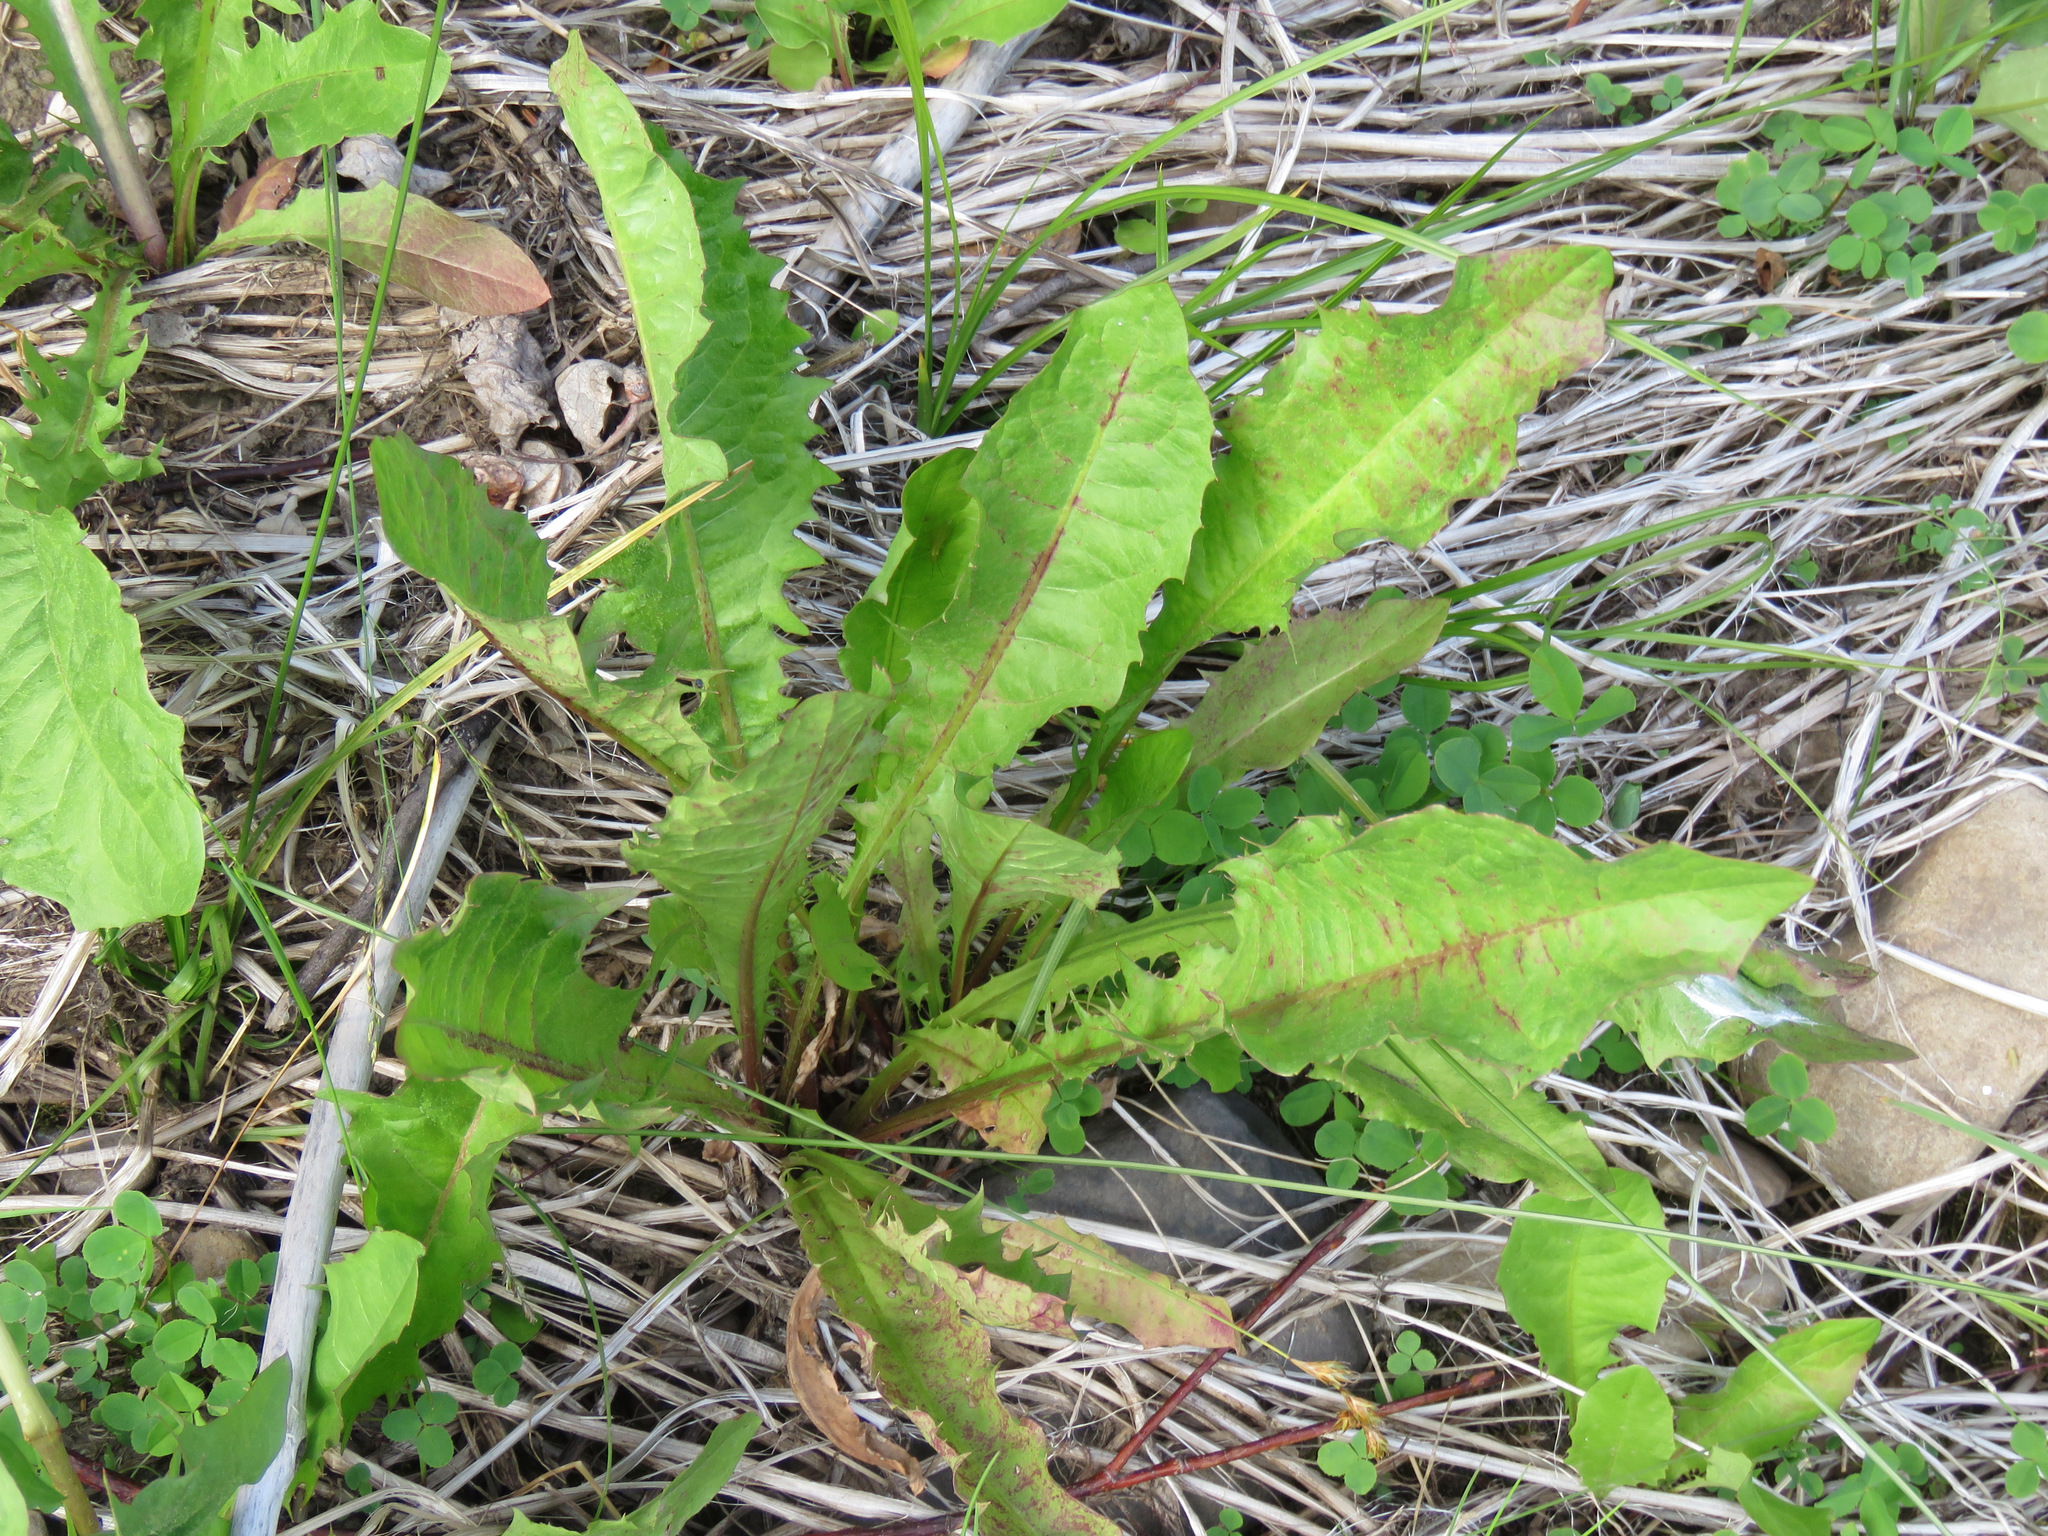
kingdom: Plantae
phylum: Tracheophyta
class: Magnoliopsida
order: Asterales
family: Asteraceae
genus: Taraxacum
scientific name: Taraxacum officinale
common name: Common dandelion
